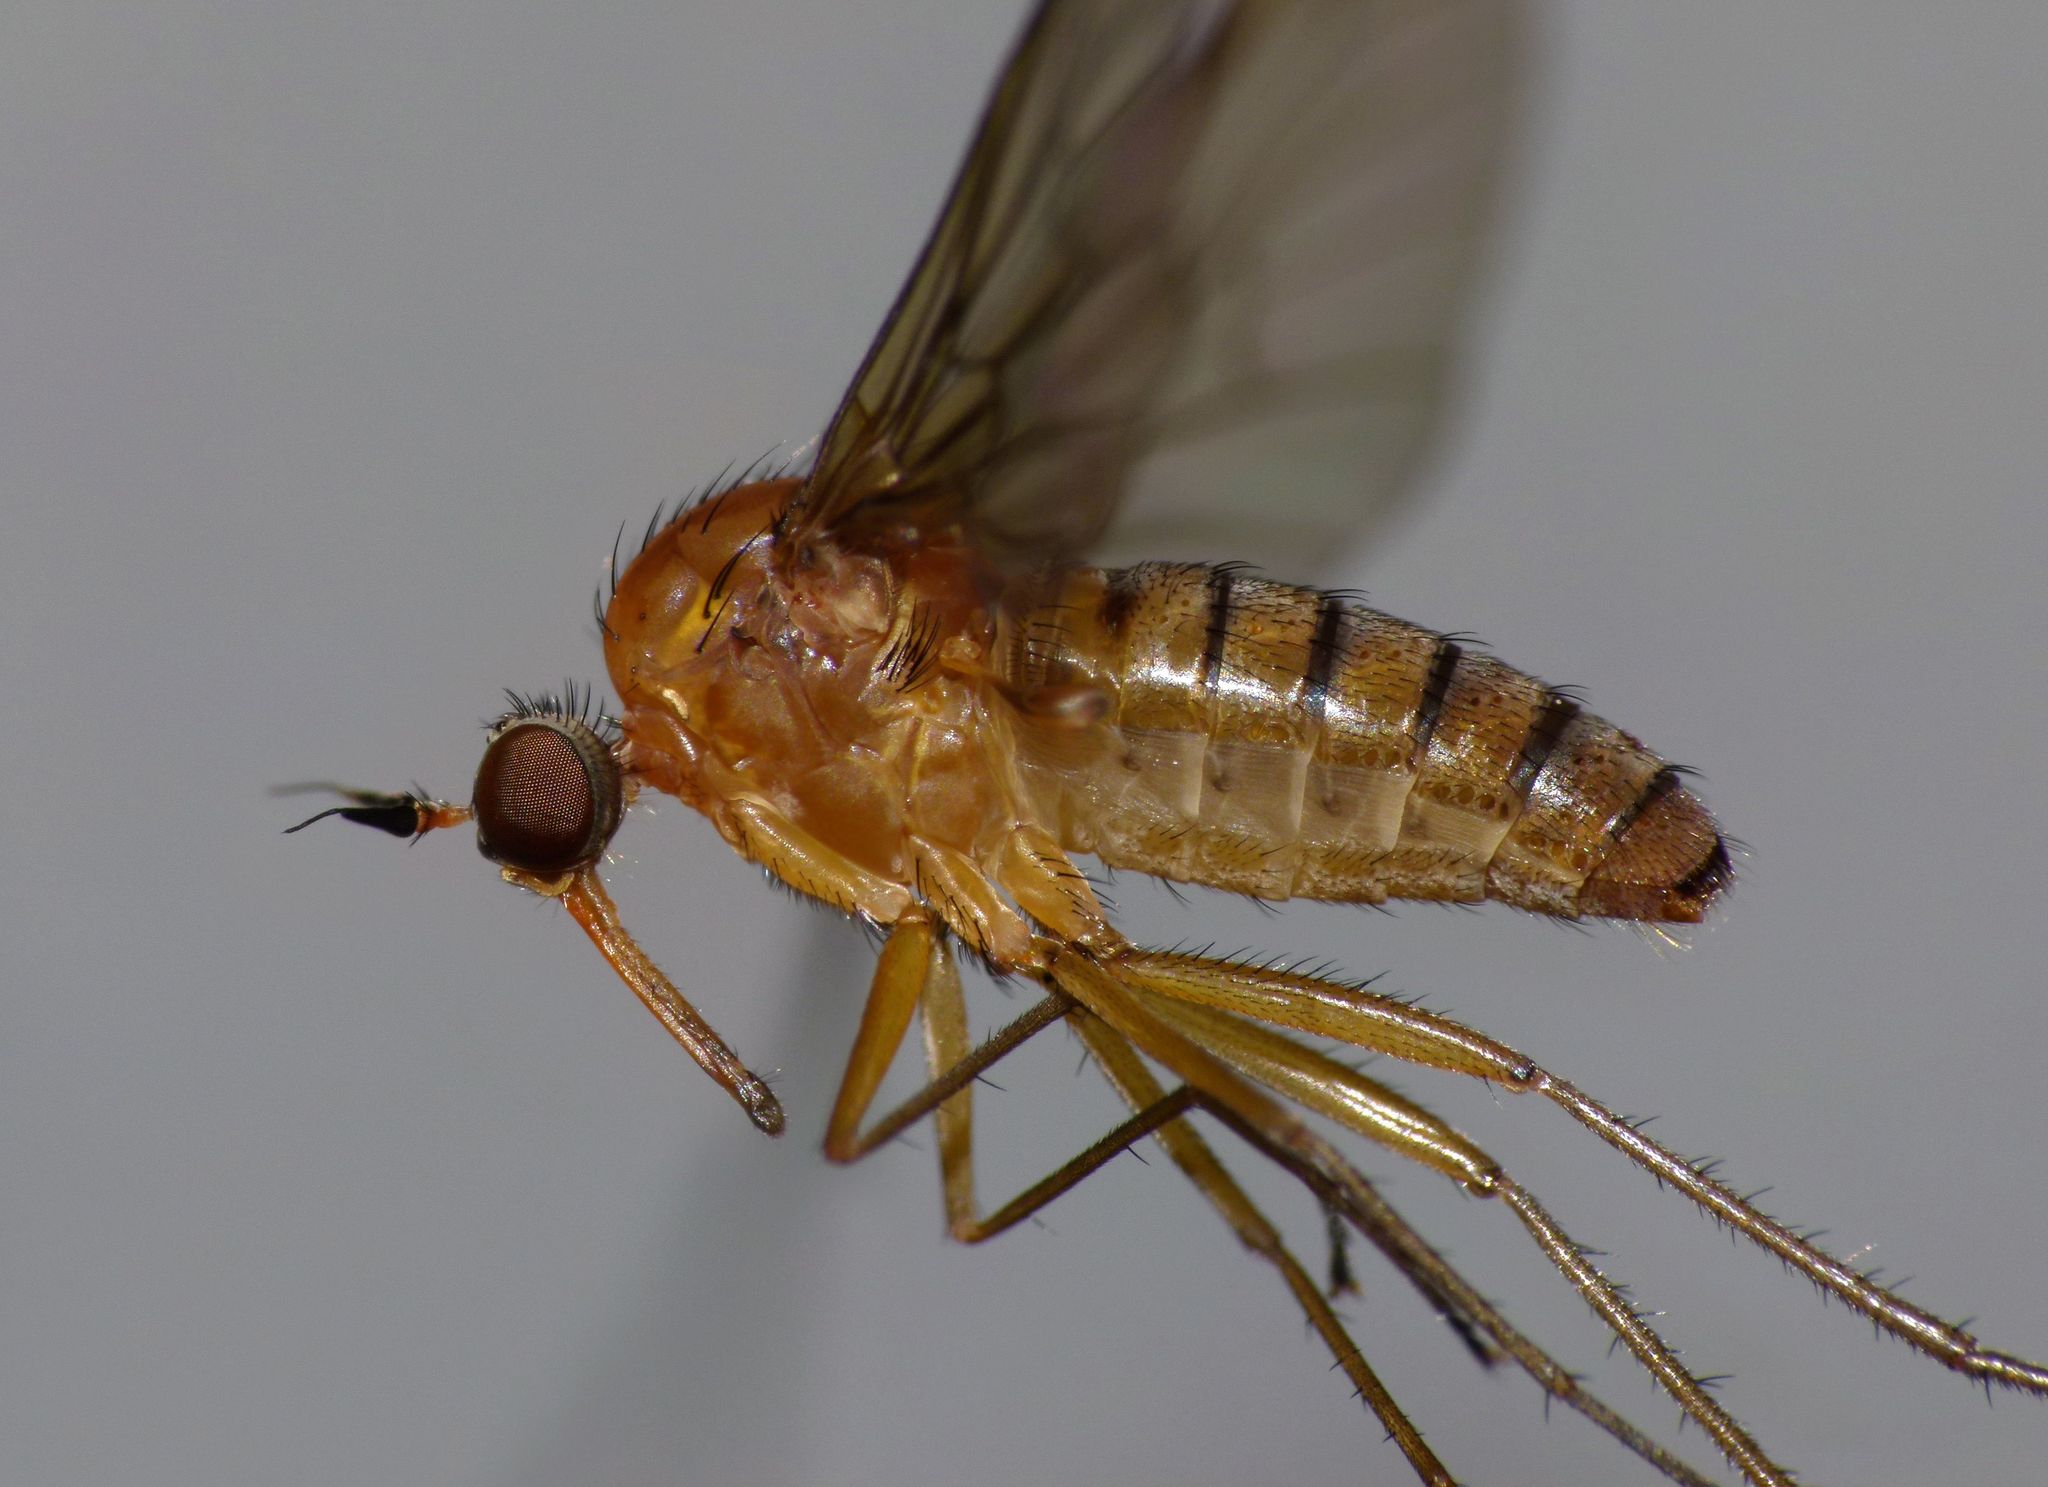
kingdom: Animalia
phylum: Arthropoda
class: Insecta
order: Diptera
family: Brachystomatidae
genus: Heterophlebus
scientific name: Heterophlebus
